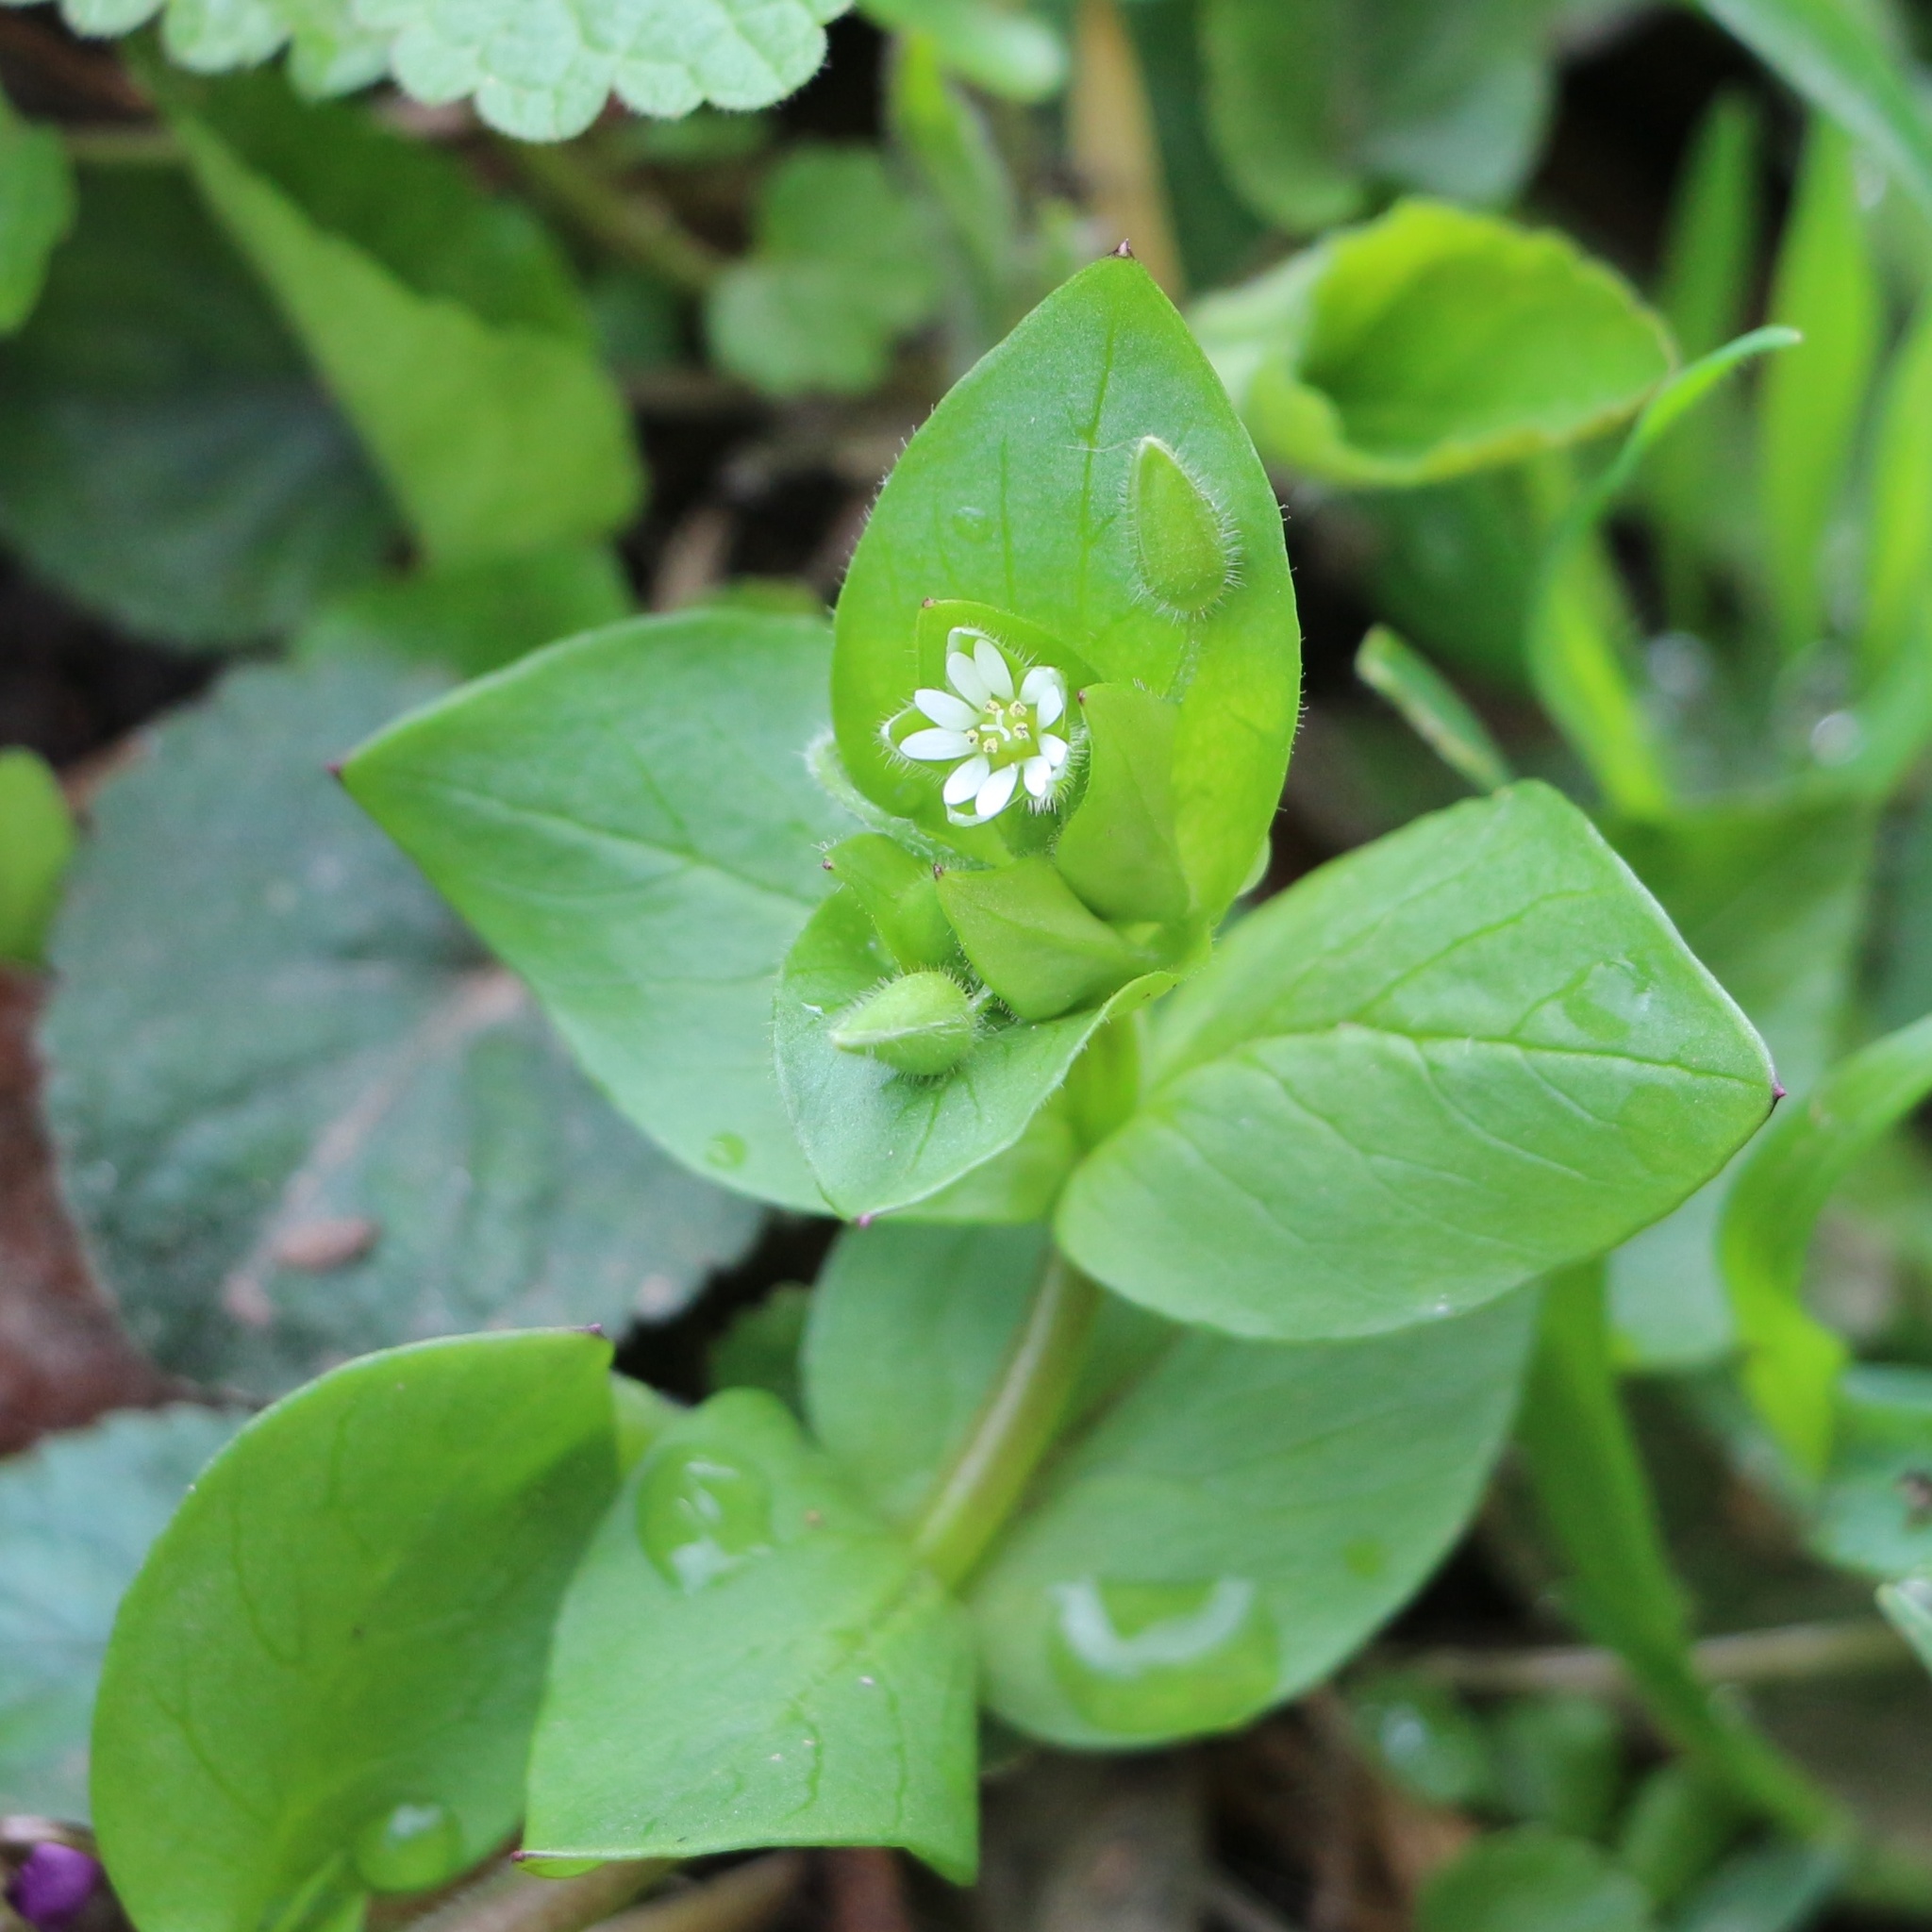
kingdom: Plantae
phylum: Tracheophyta
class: Magnoliopsida
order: Caryophyllales
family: Caryophyllaceae
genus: Stellaria
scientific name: Stellaria media
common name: Common chickweed
